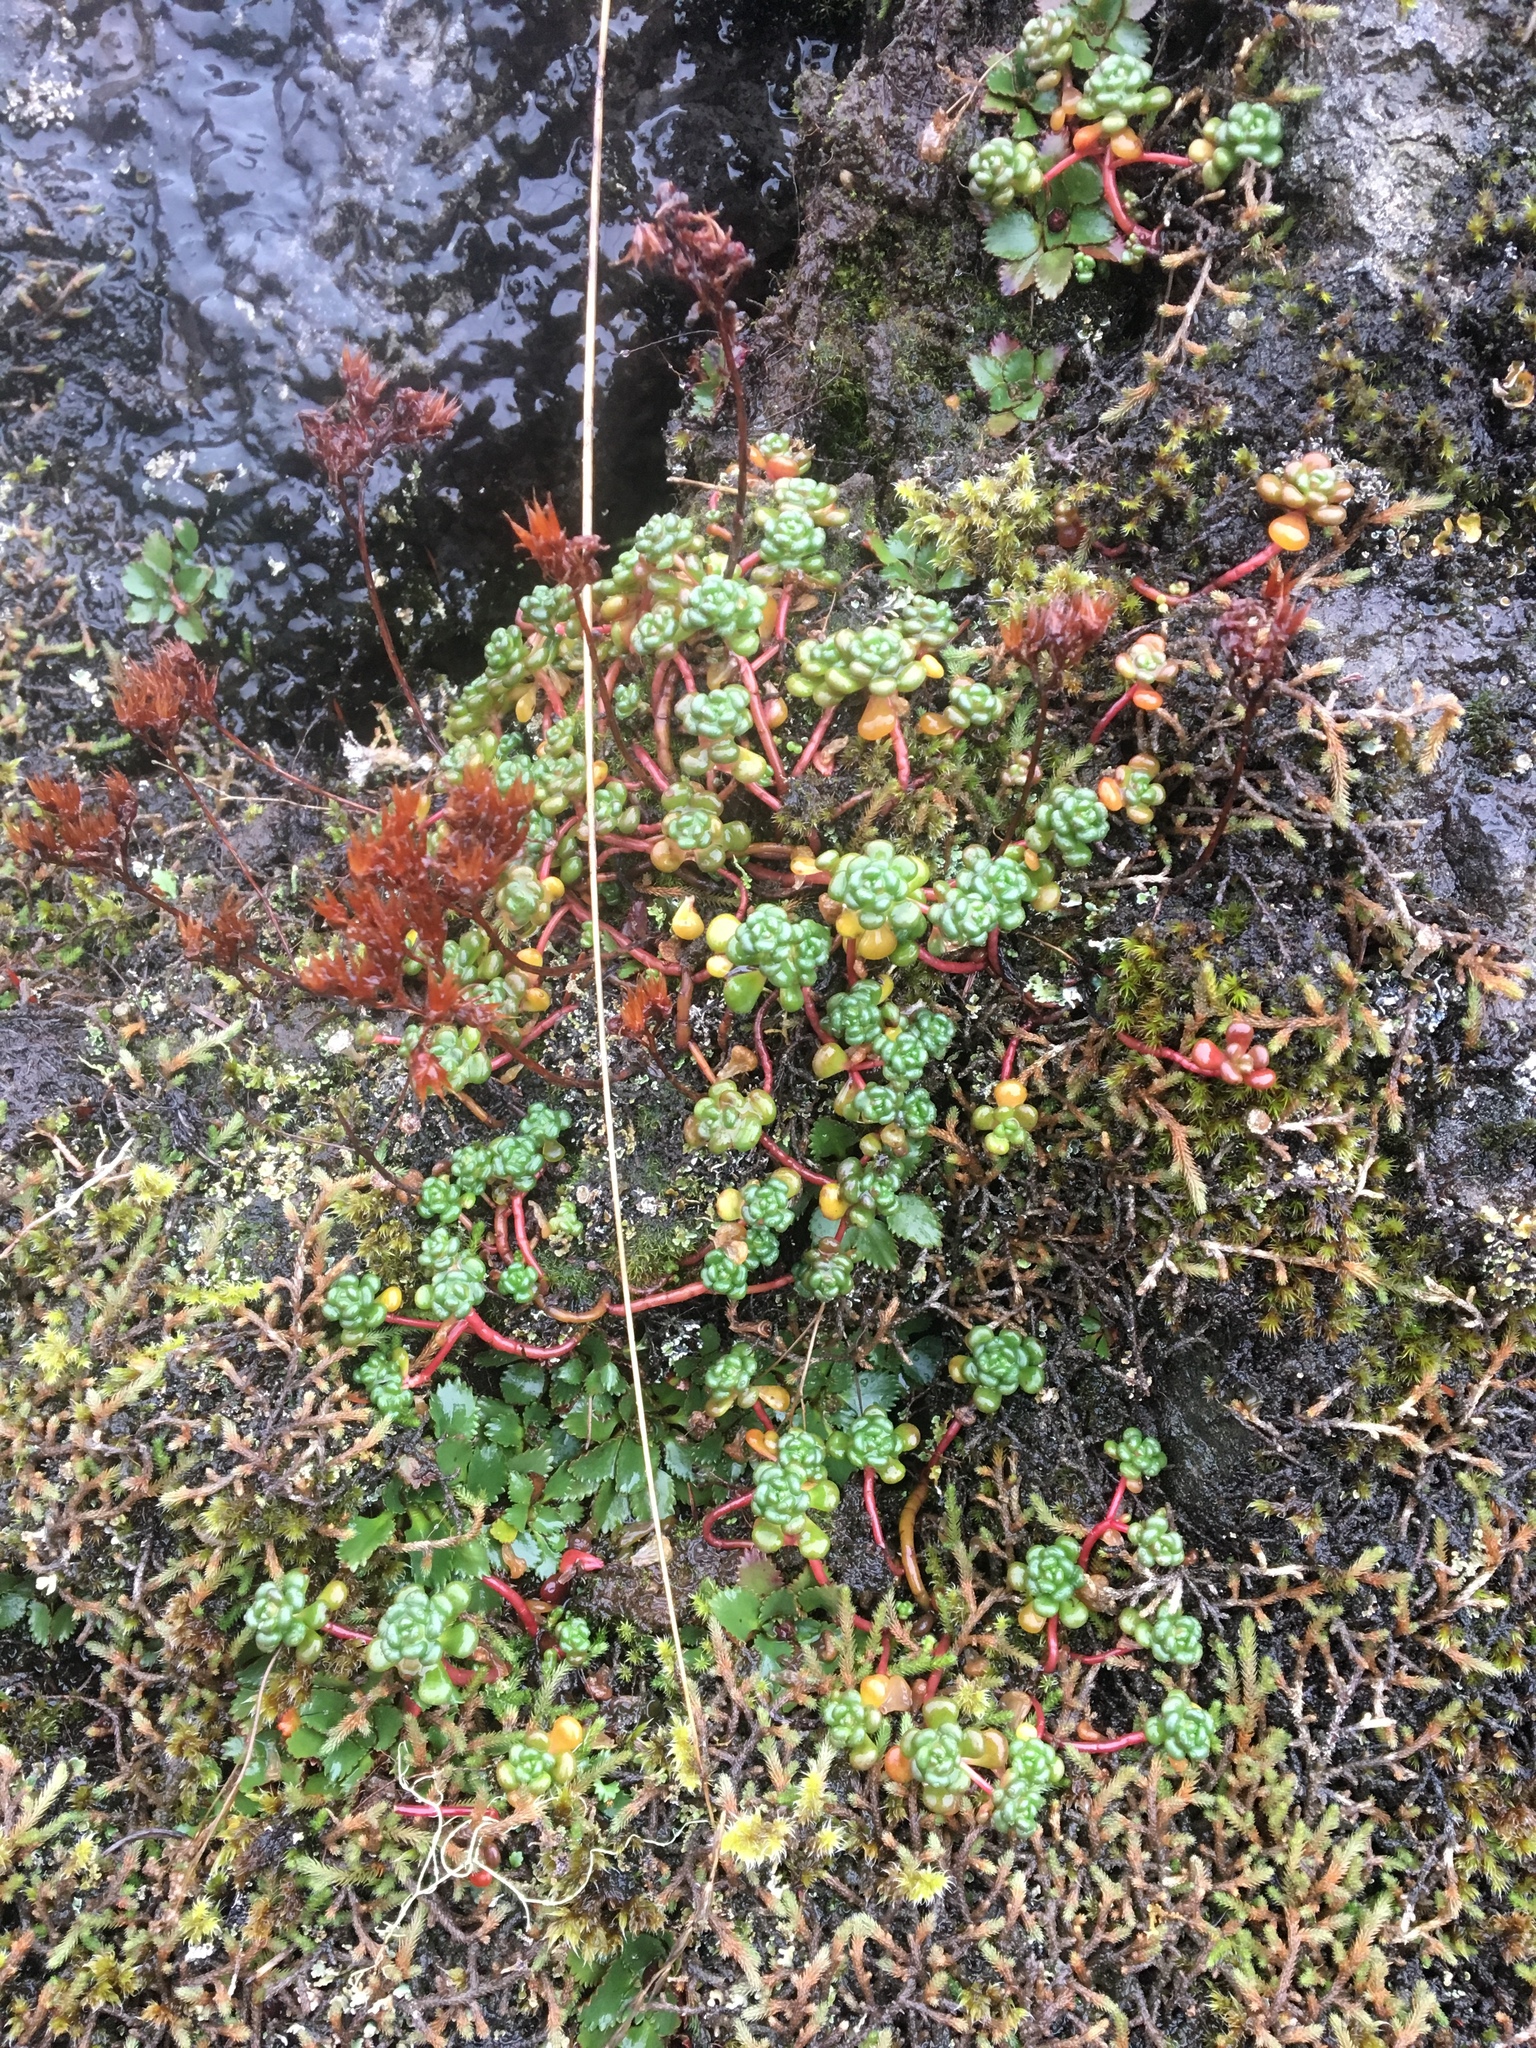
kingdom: Plantae
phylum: Tracheophyta
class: Magnoliopsida
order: Saxifragales
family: Crassulaceae
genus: Sedum
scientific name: Sedum oreganum
